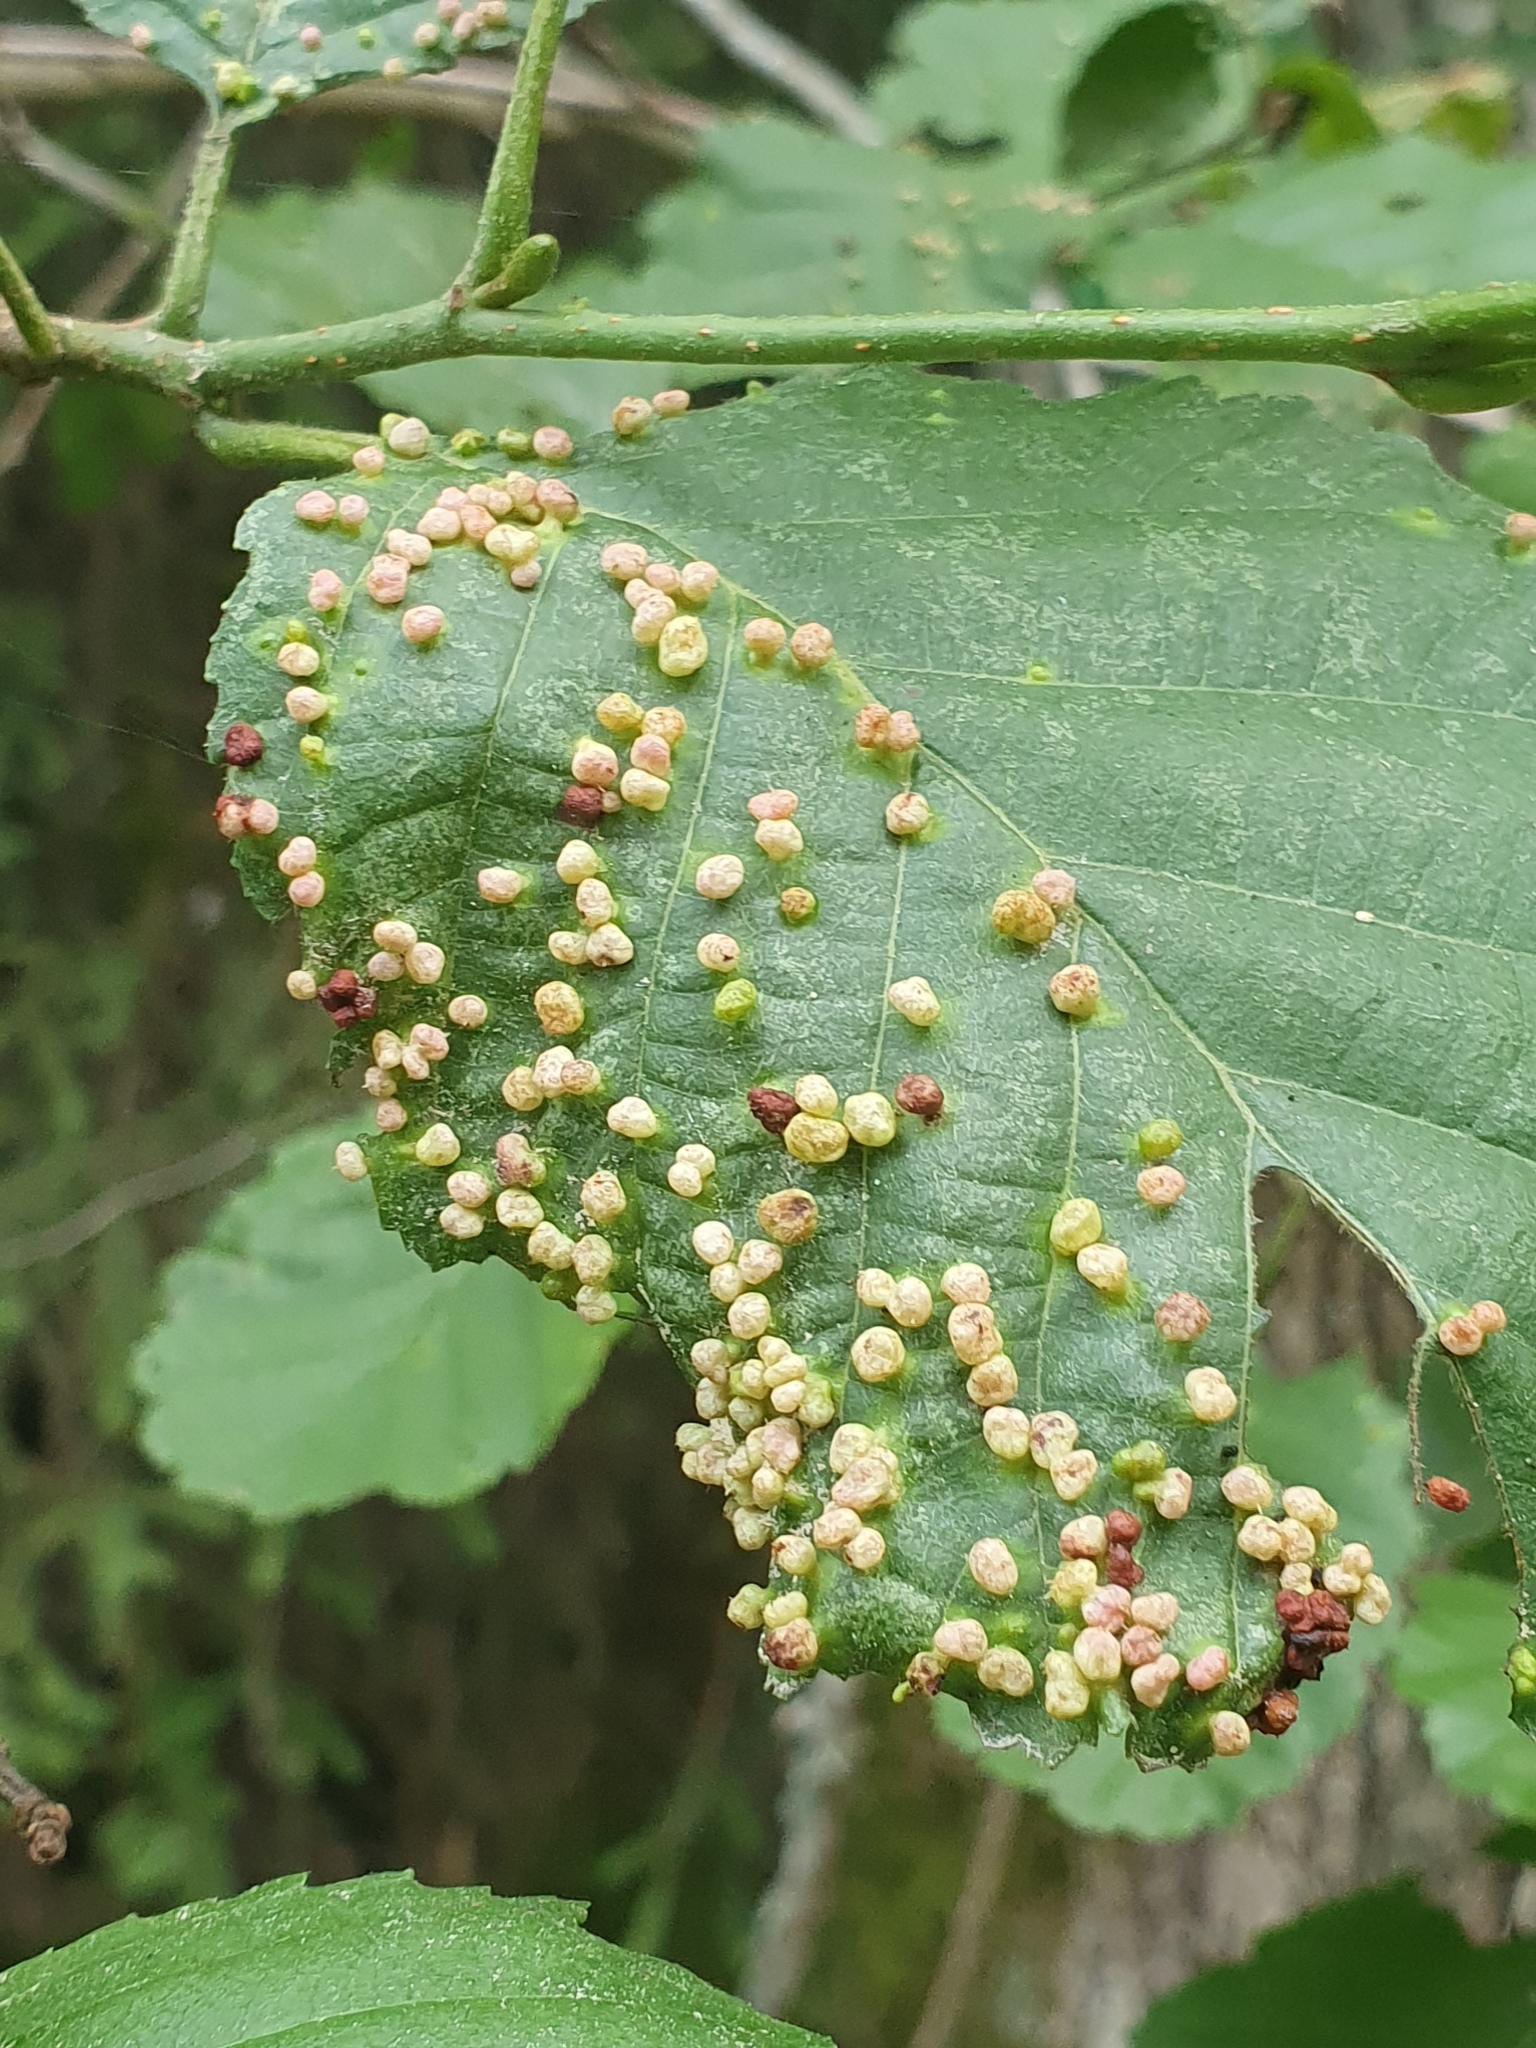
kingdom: Animalia
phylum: Arthropoda
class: Arachnida
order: Trombidiformes
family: Eriophyidae
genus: Eriophyes
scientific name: Eriophyes laevis
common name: Alder leaf gall mite
